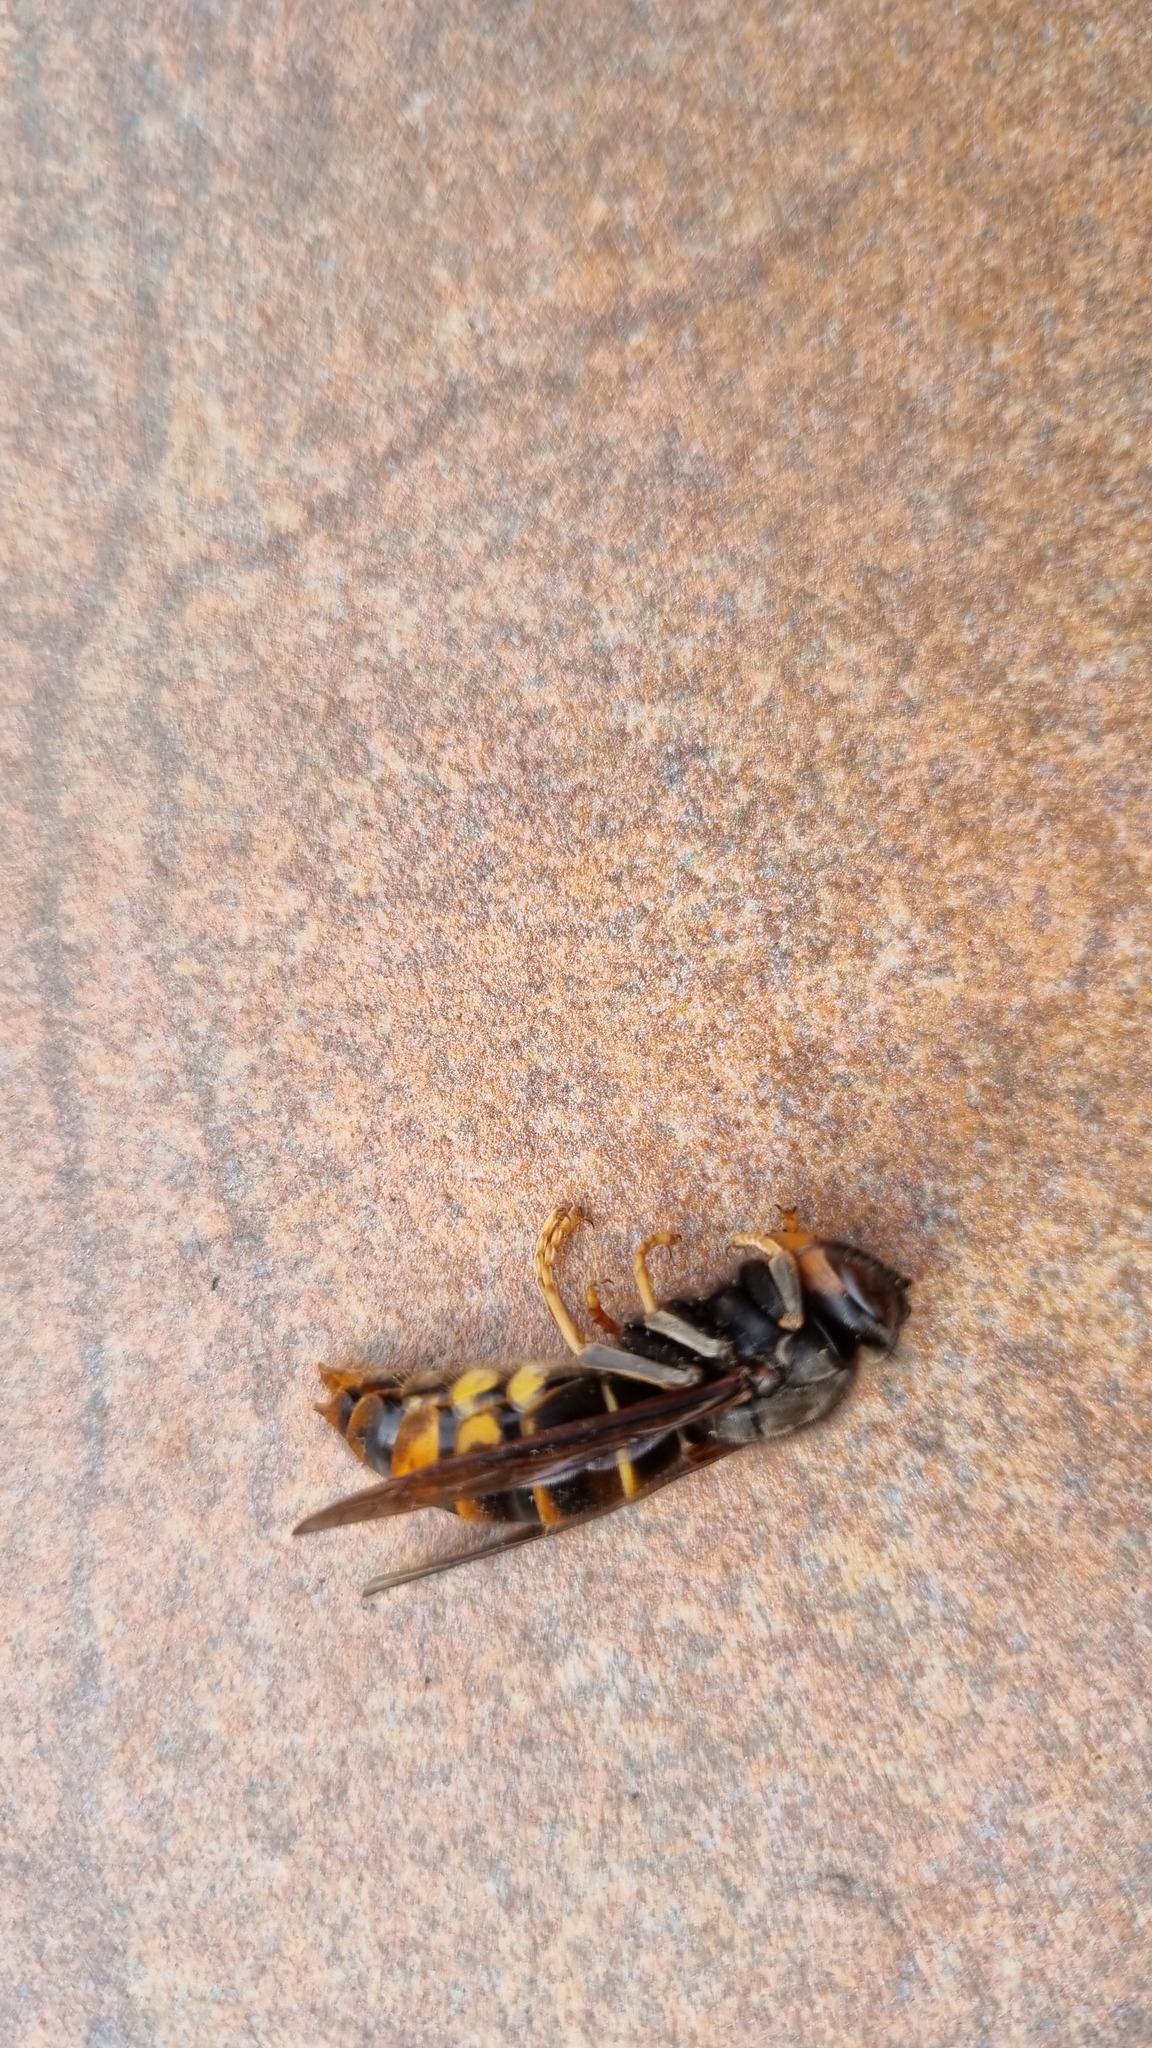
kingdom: Animalia
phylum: Arthropoda
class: Insecta
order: Hymenoptera
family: Vespidae
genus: Vespa
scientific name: Vespa velutina
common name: Asian hornet
